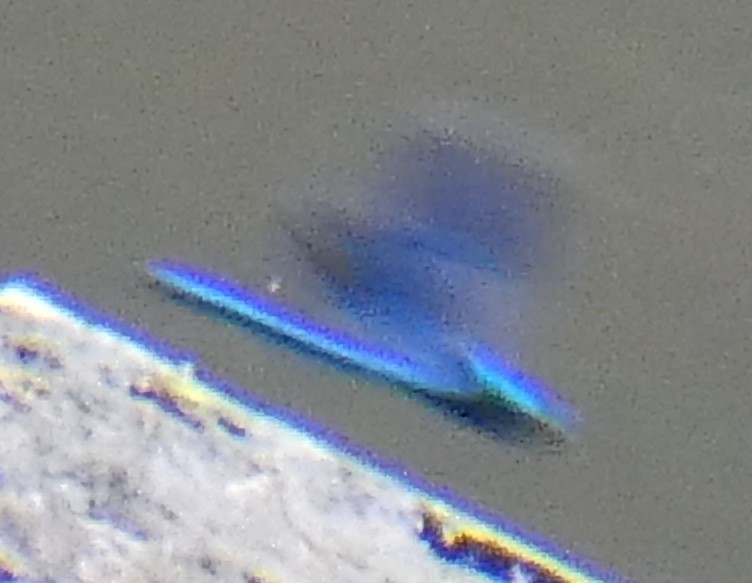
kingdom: Animalia
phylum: Arthropoda
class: Insecta
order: Odonata
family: Calopterygidae
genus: Calopteryx
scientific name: Calopteryx splendens
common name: Banded demoiselle
